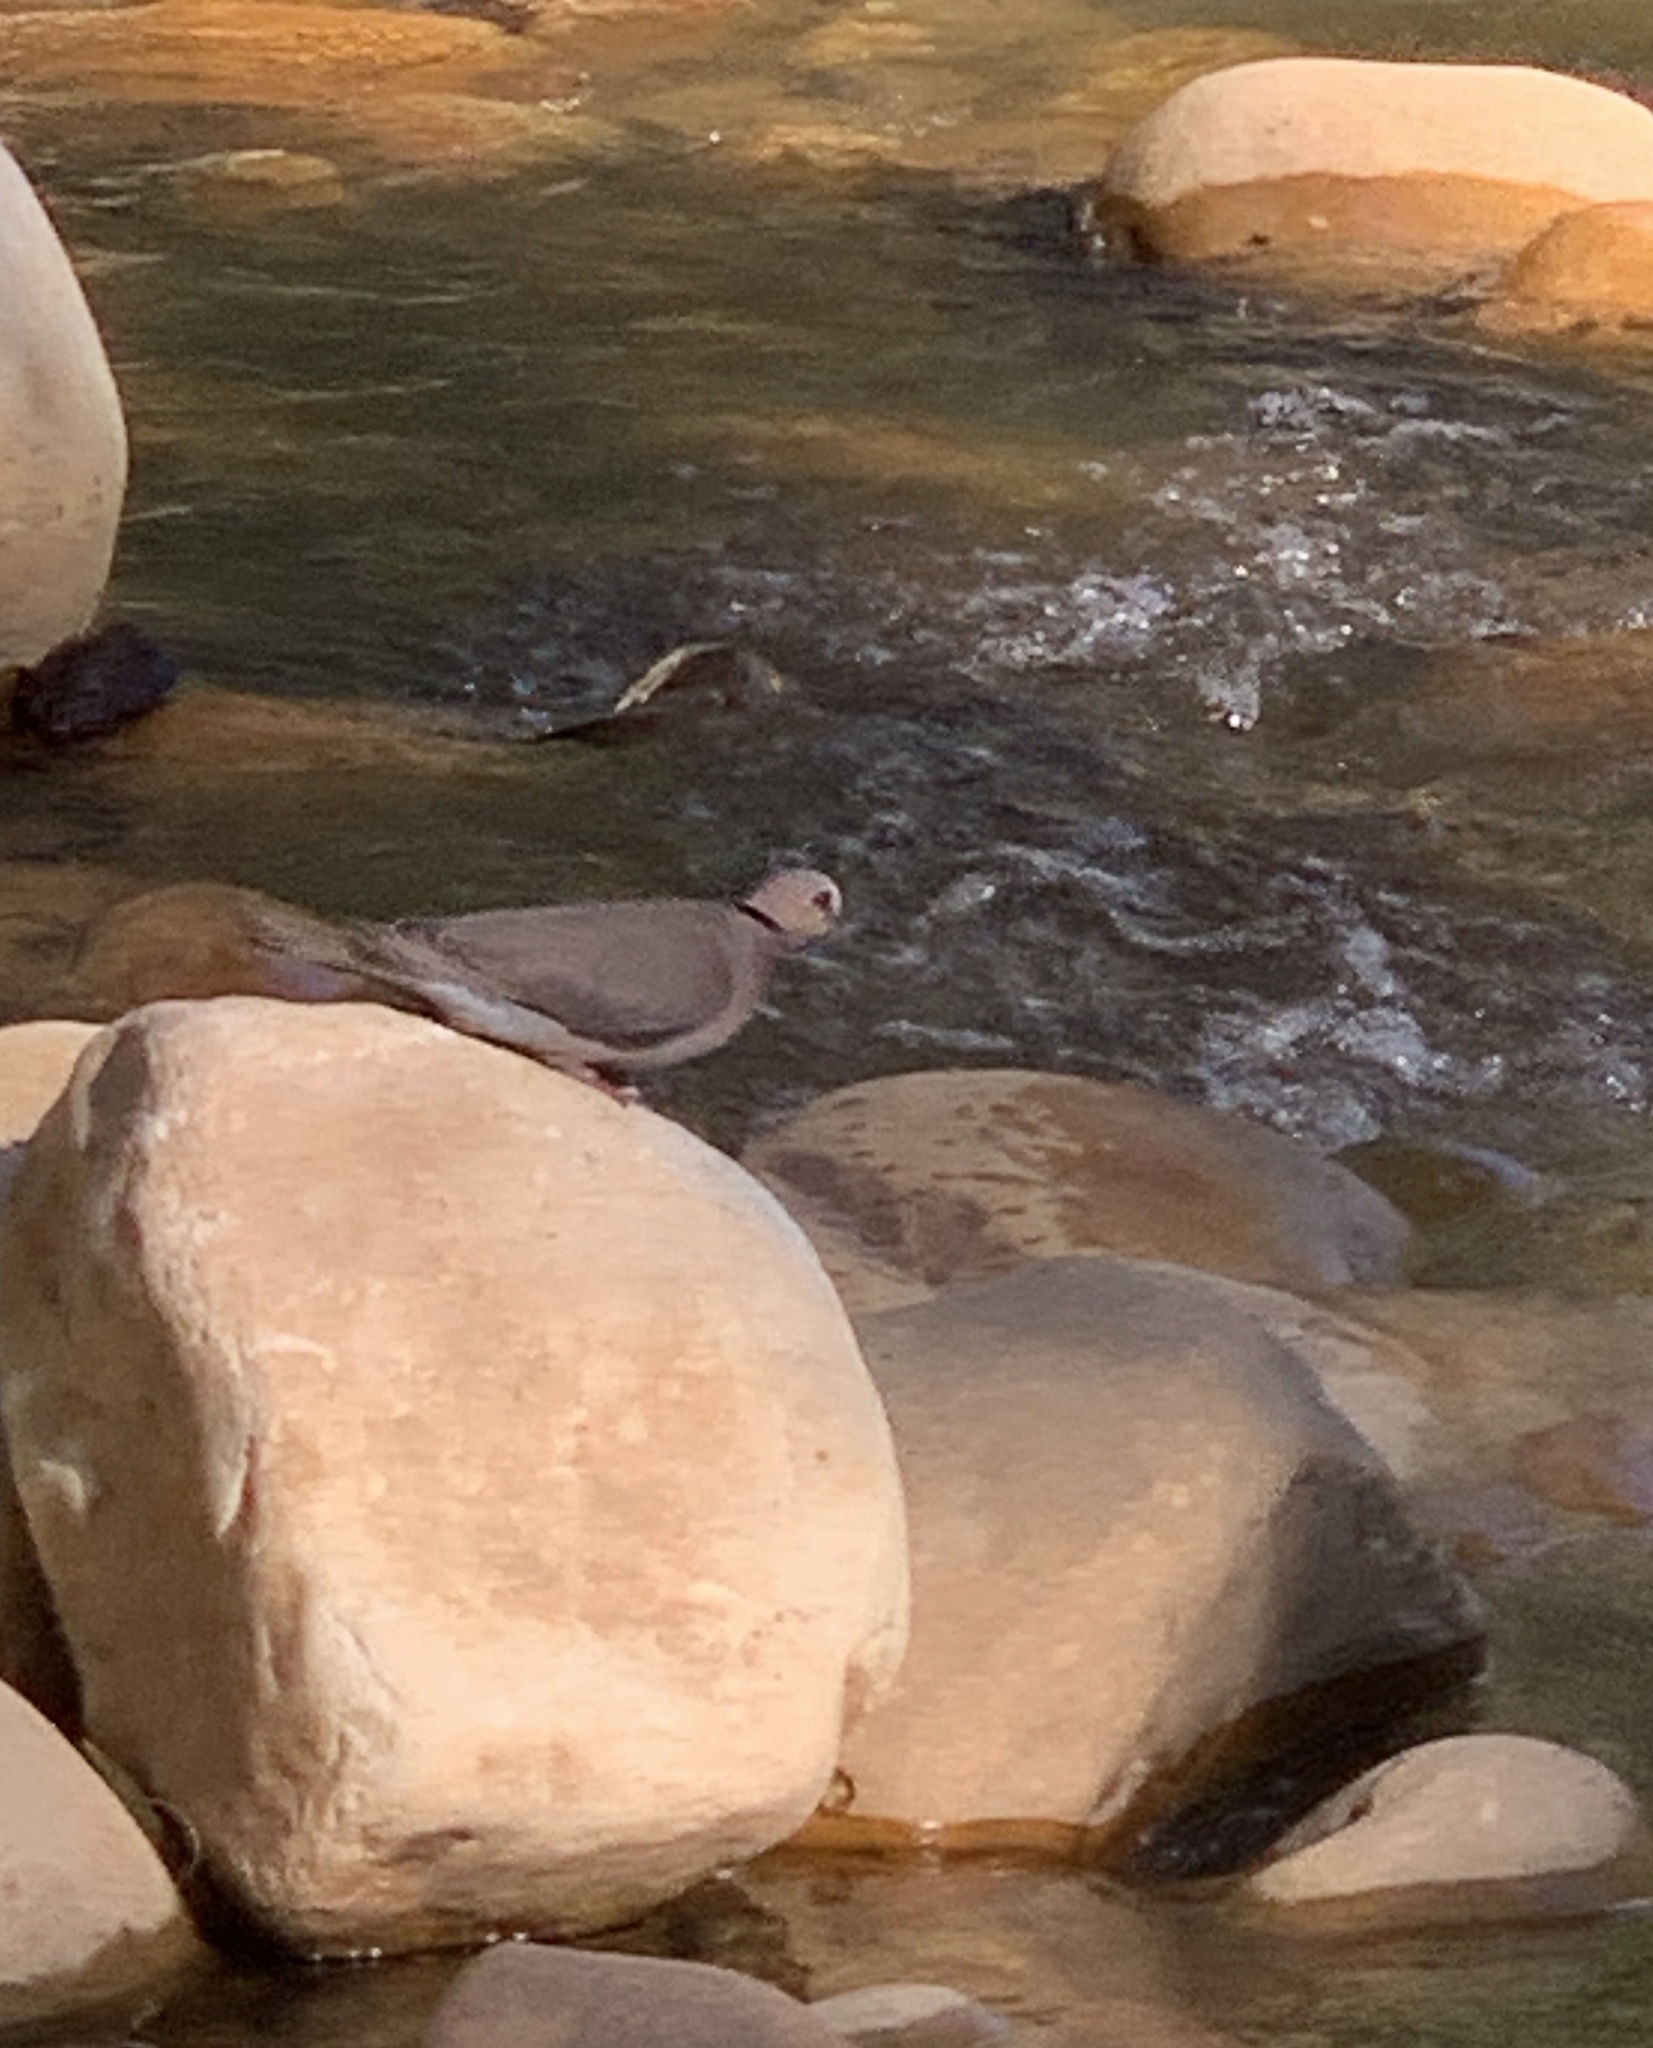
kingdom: Animalia
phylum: Chordata
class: Aves
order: Columbiformes
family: Columbidae
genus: Streptopelia
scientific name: Streptopelia semitorquata
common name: Red-eyed dove
